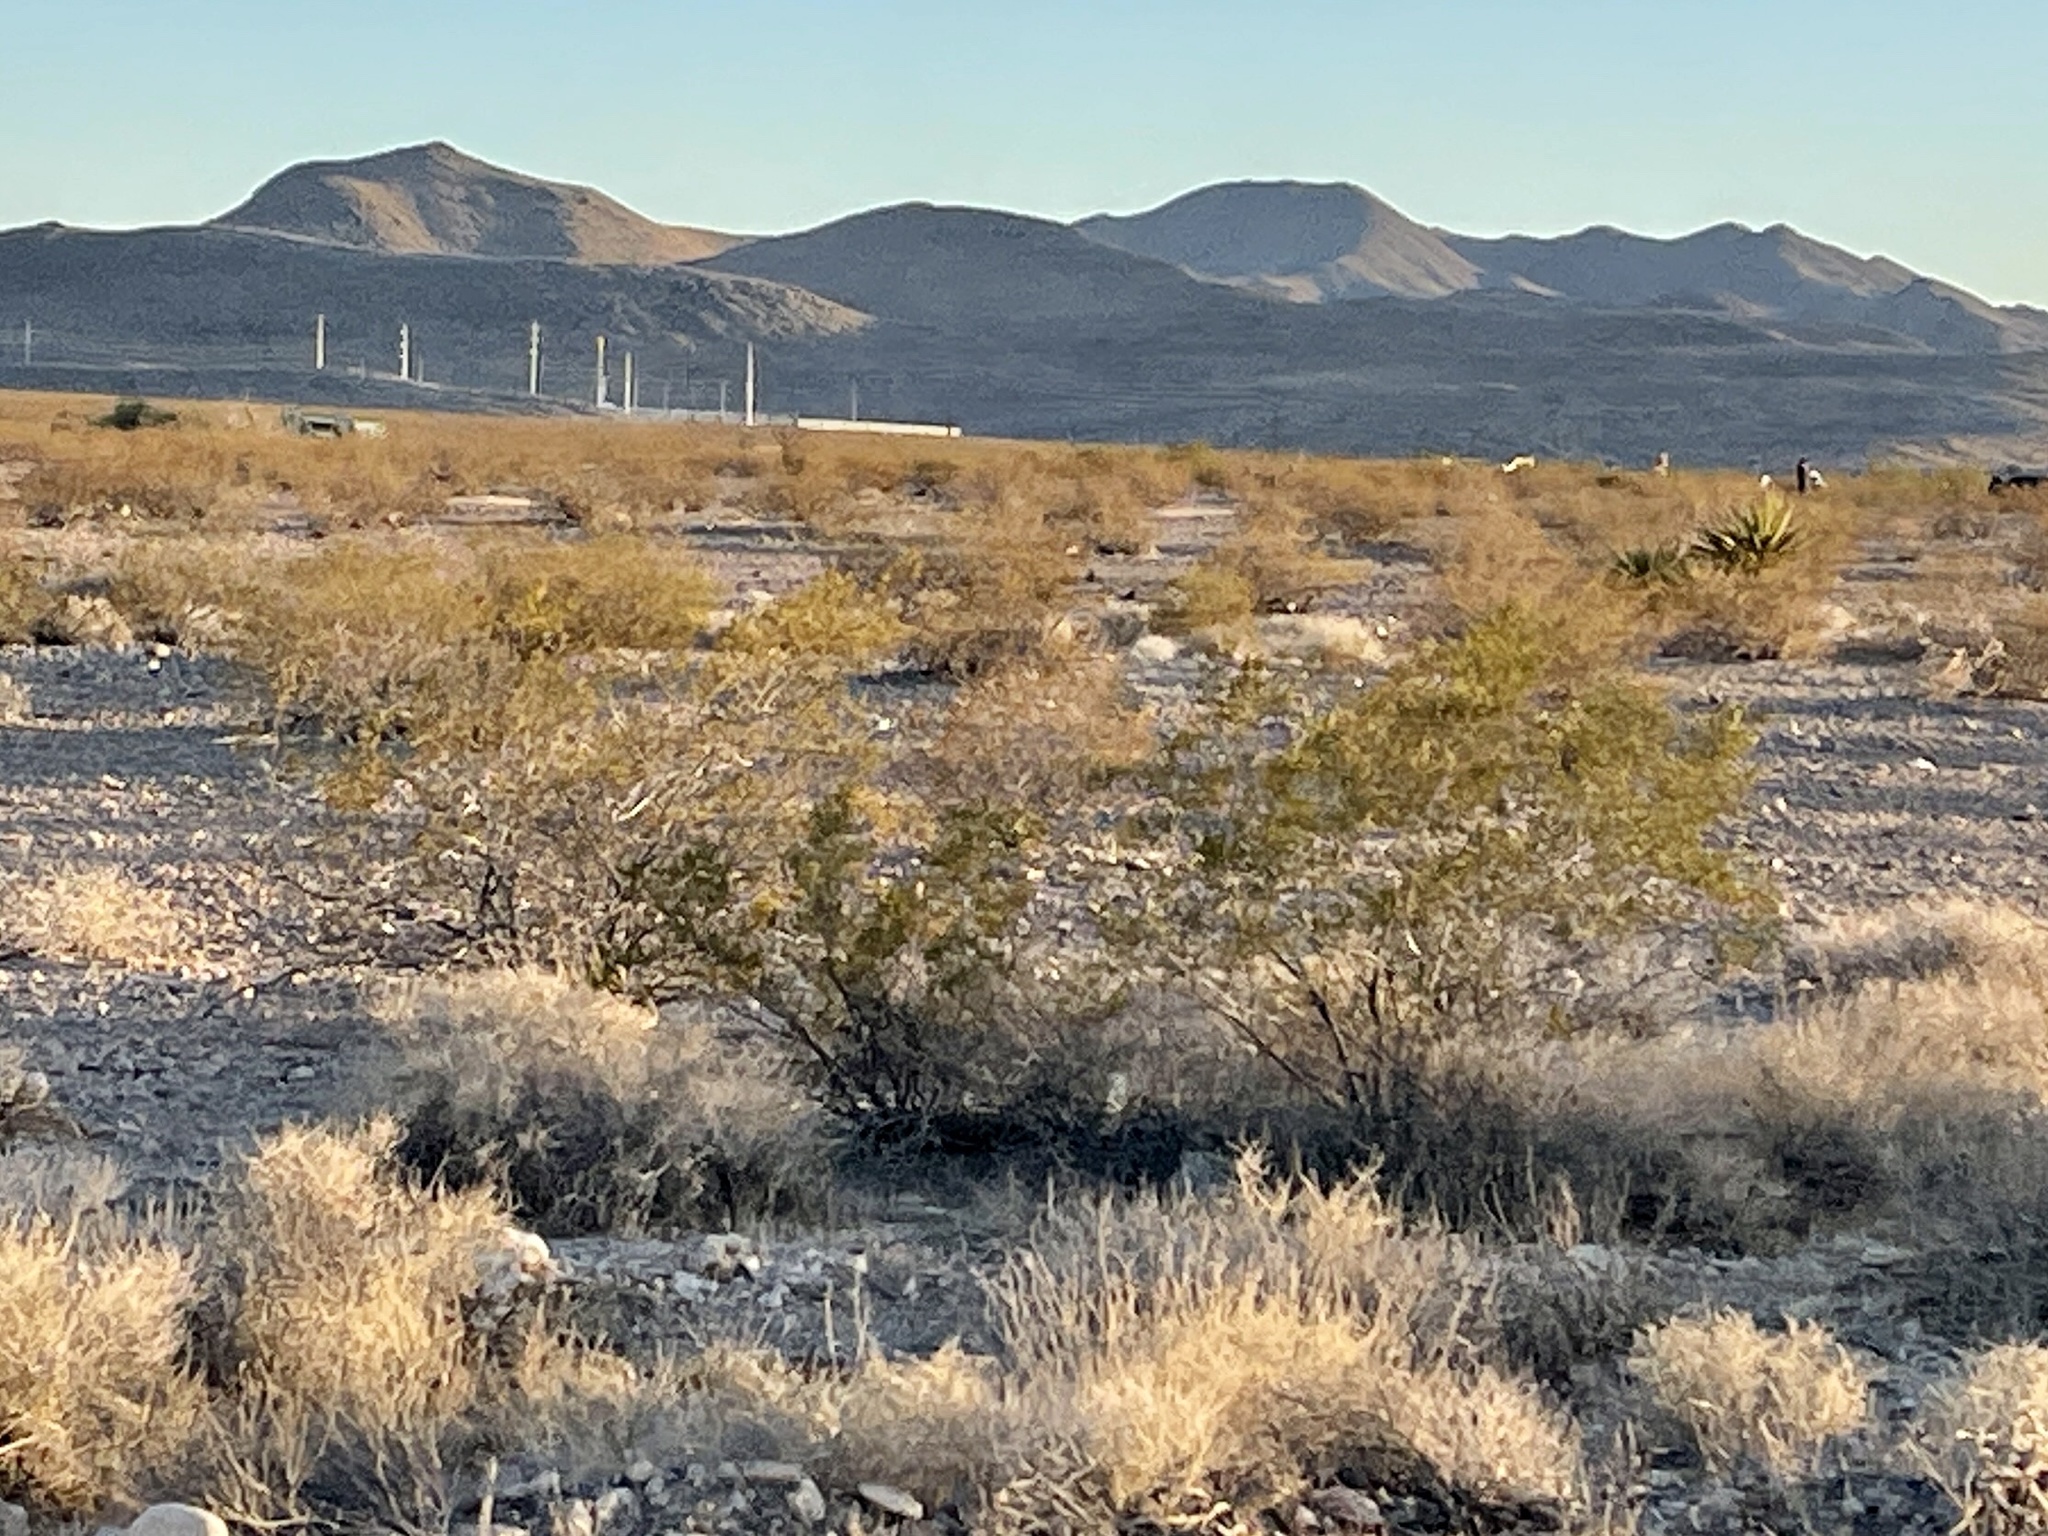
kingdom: Plantae
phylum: Tracheophyta
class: Magnoliopsida
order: Zygophyllales
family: Zygophyllaceae
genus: Larrea
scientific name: Larrea tridentata
